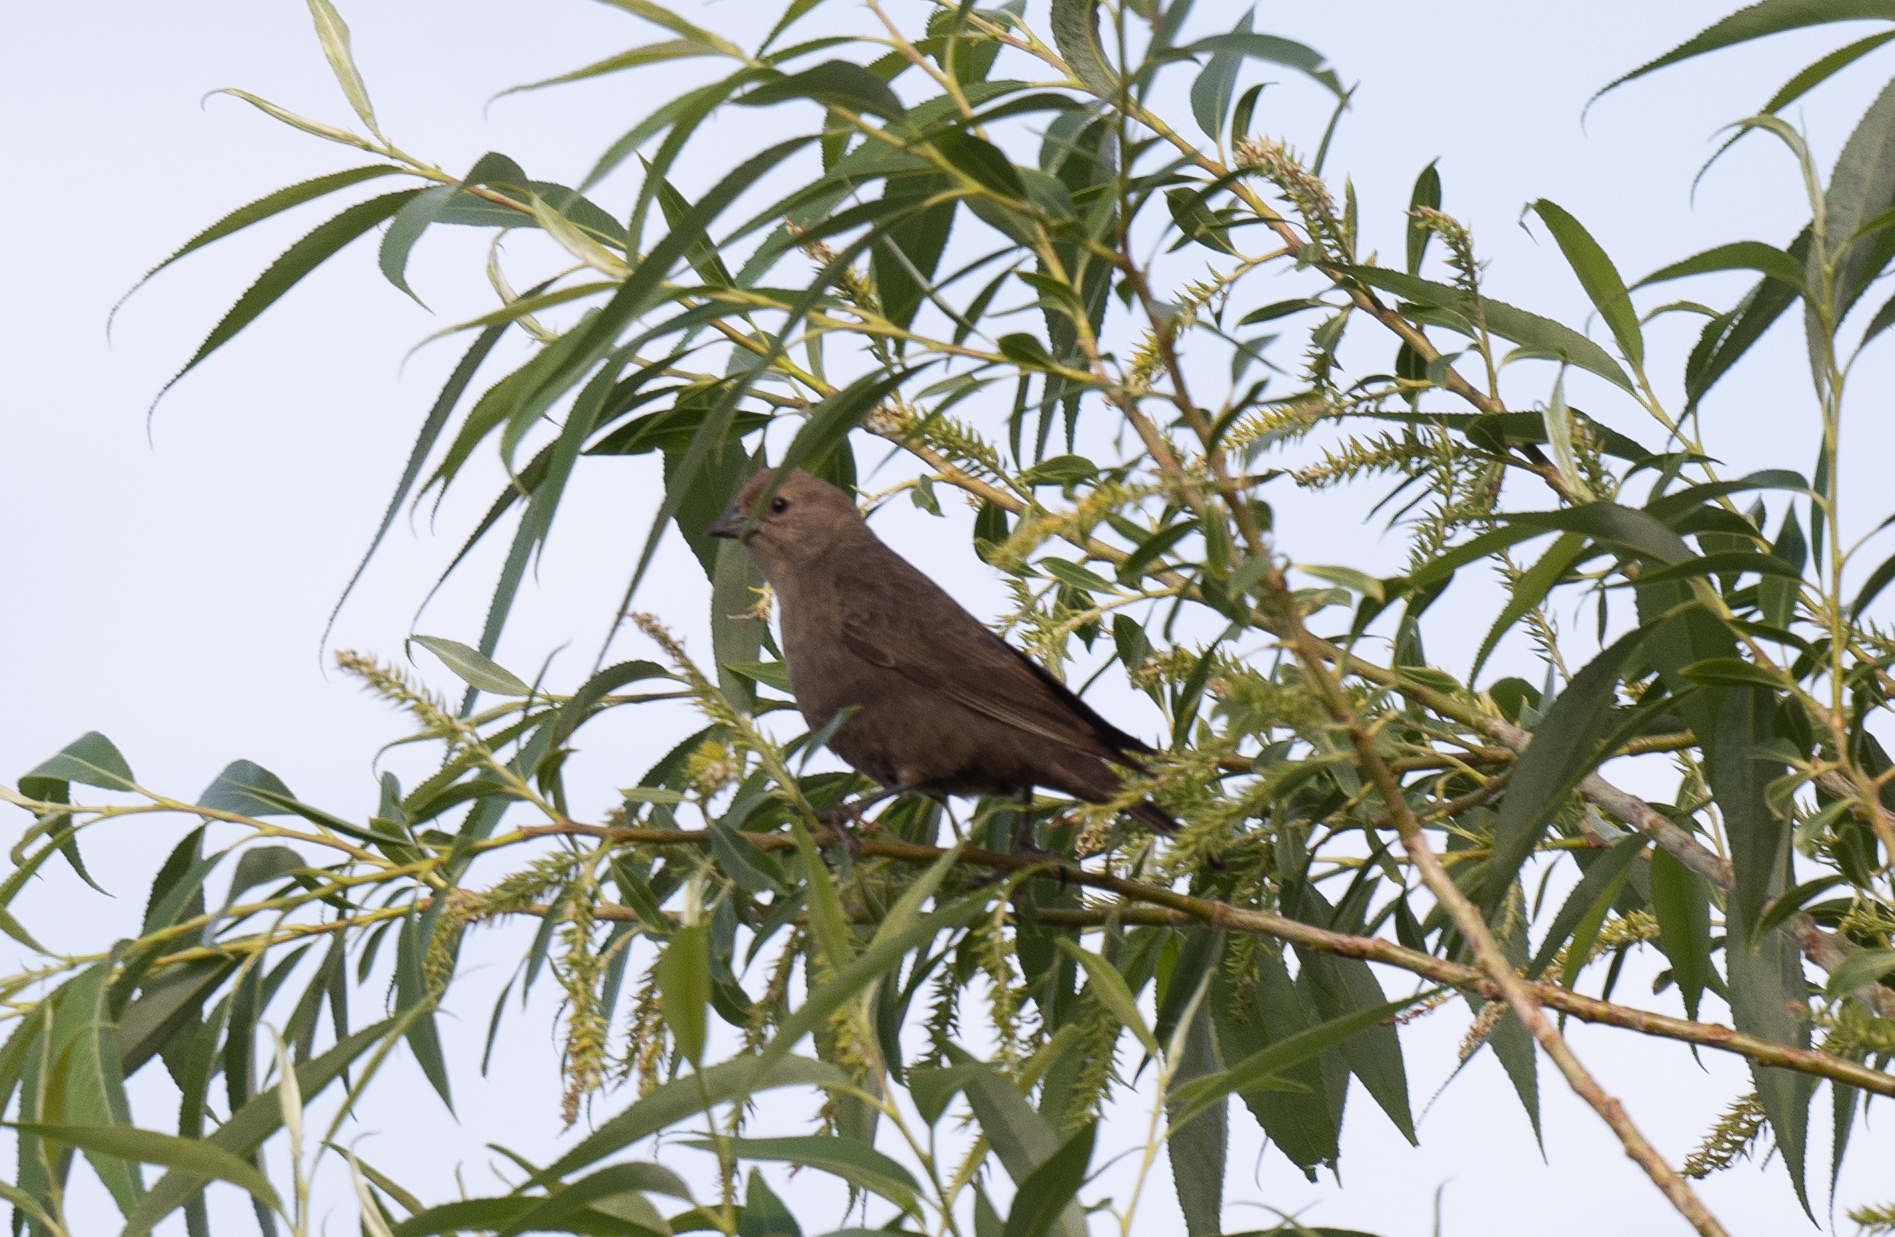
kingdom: Animalia
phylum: Chordata
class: Aves
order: Passeriformes
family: Icteridae
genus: Molothrus
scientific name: Molothrus ater
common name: Brown-headed cowbird
